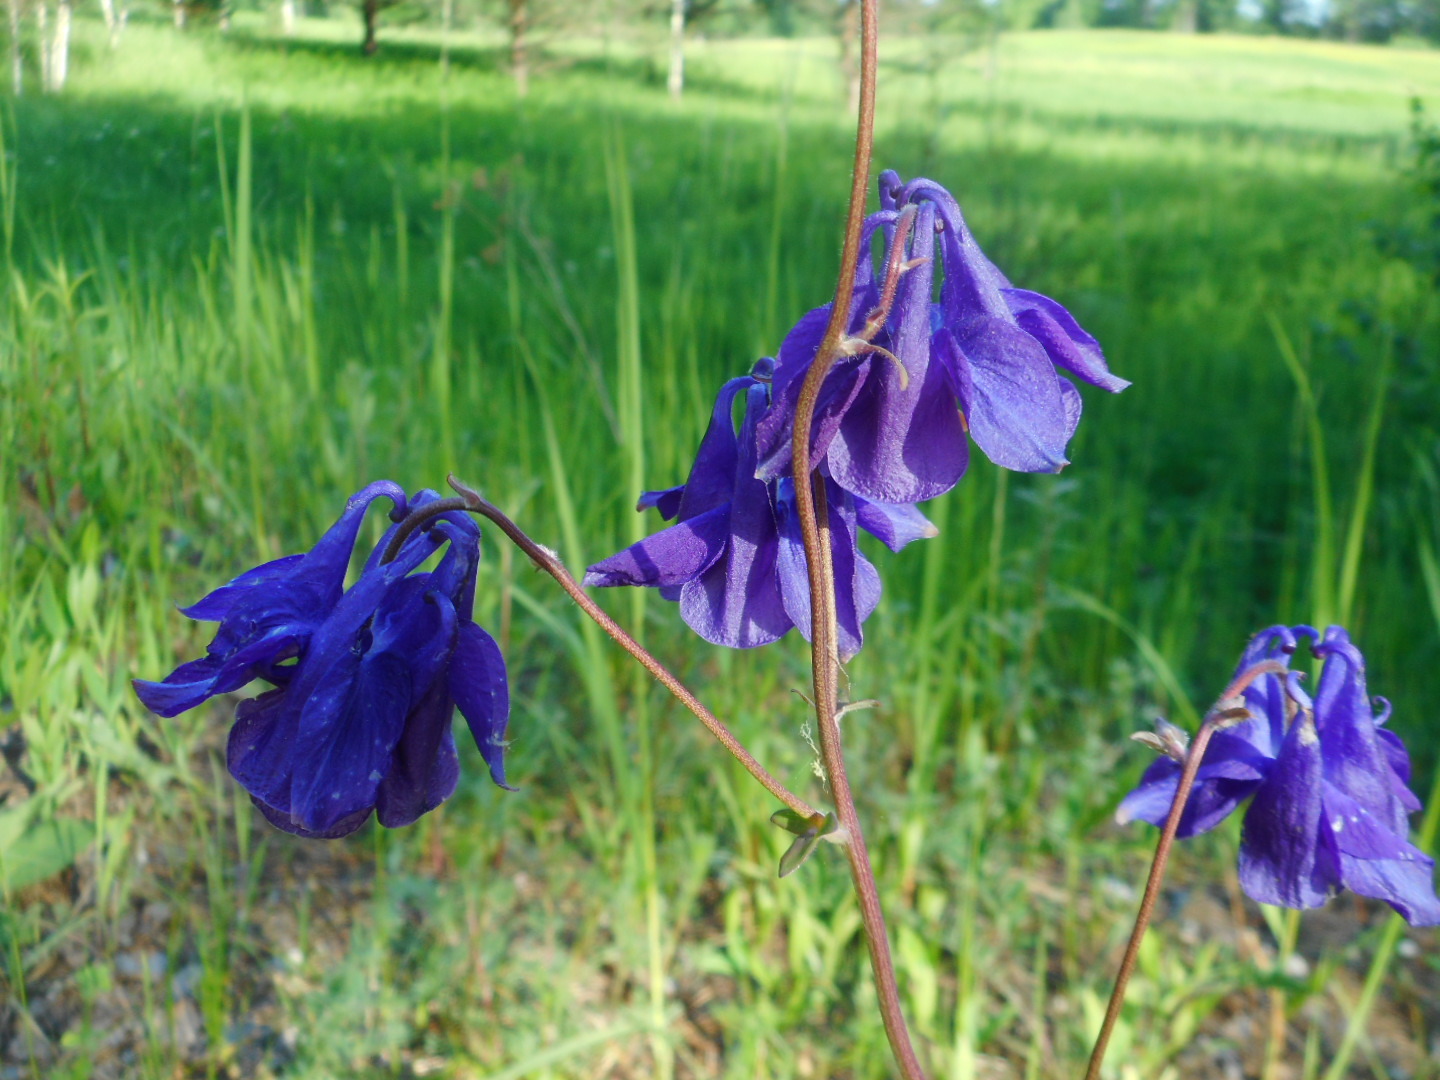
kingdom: Plantae
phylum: Tracheophyta
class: Magnoliopsida
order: Ranunculales
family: Ranunculaceae
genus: Aquilegia
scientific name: Aquilegia vulgaris
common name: Columbine
